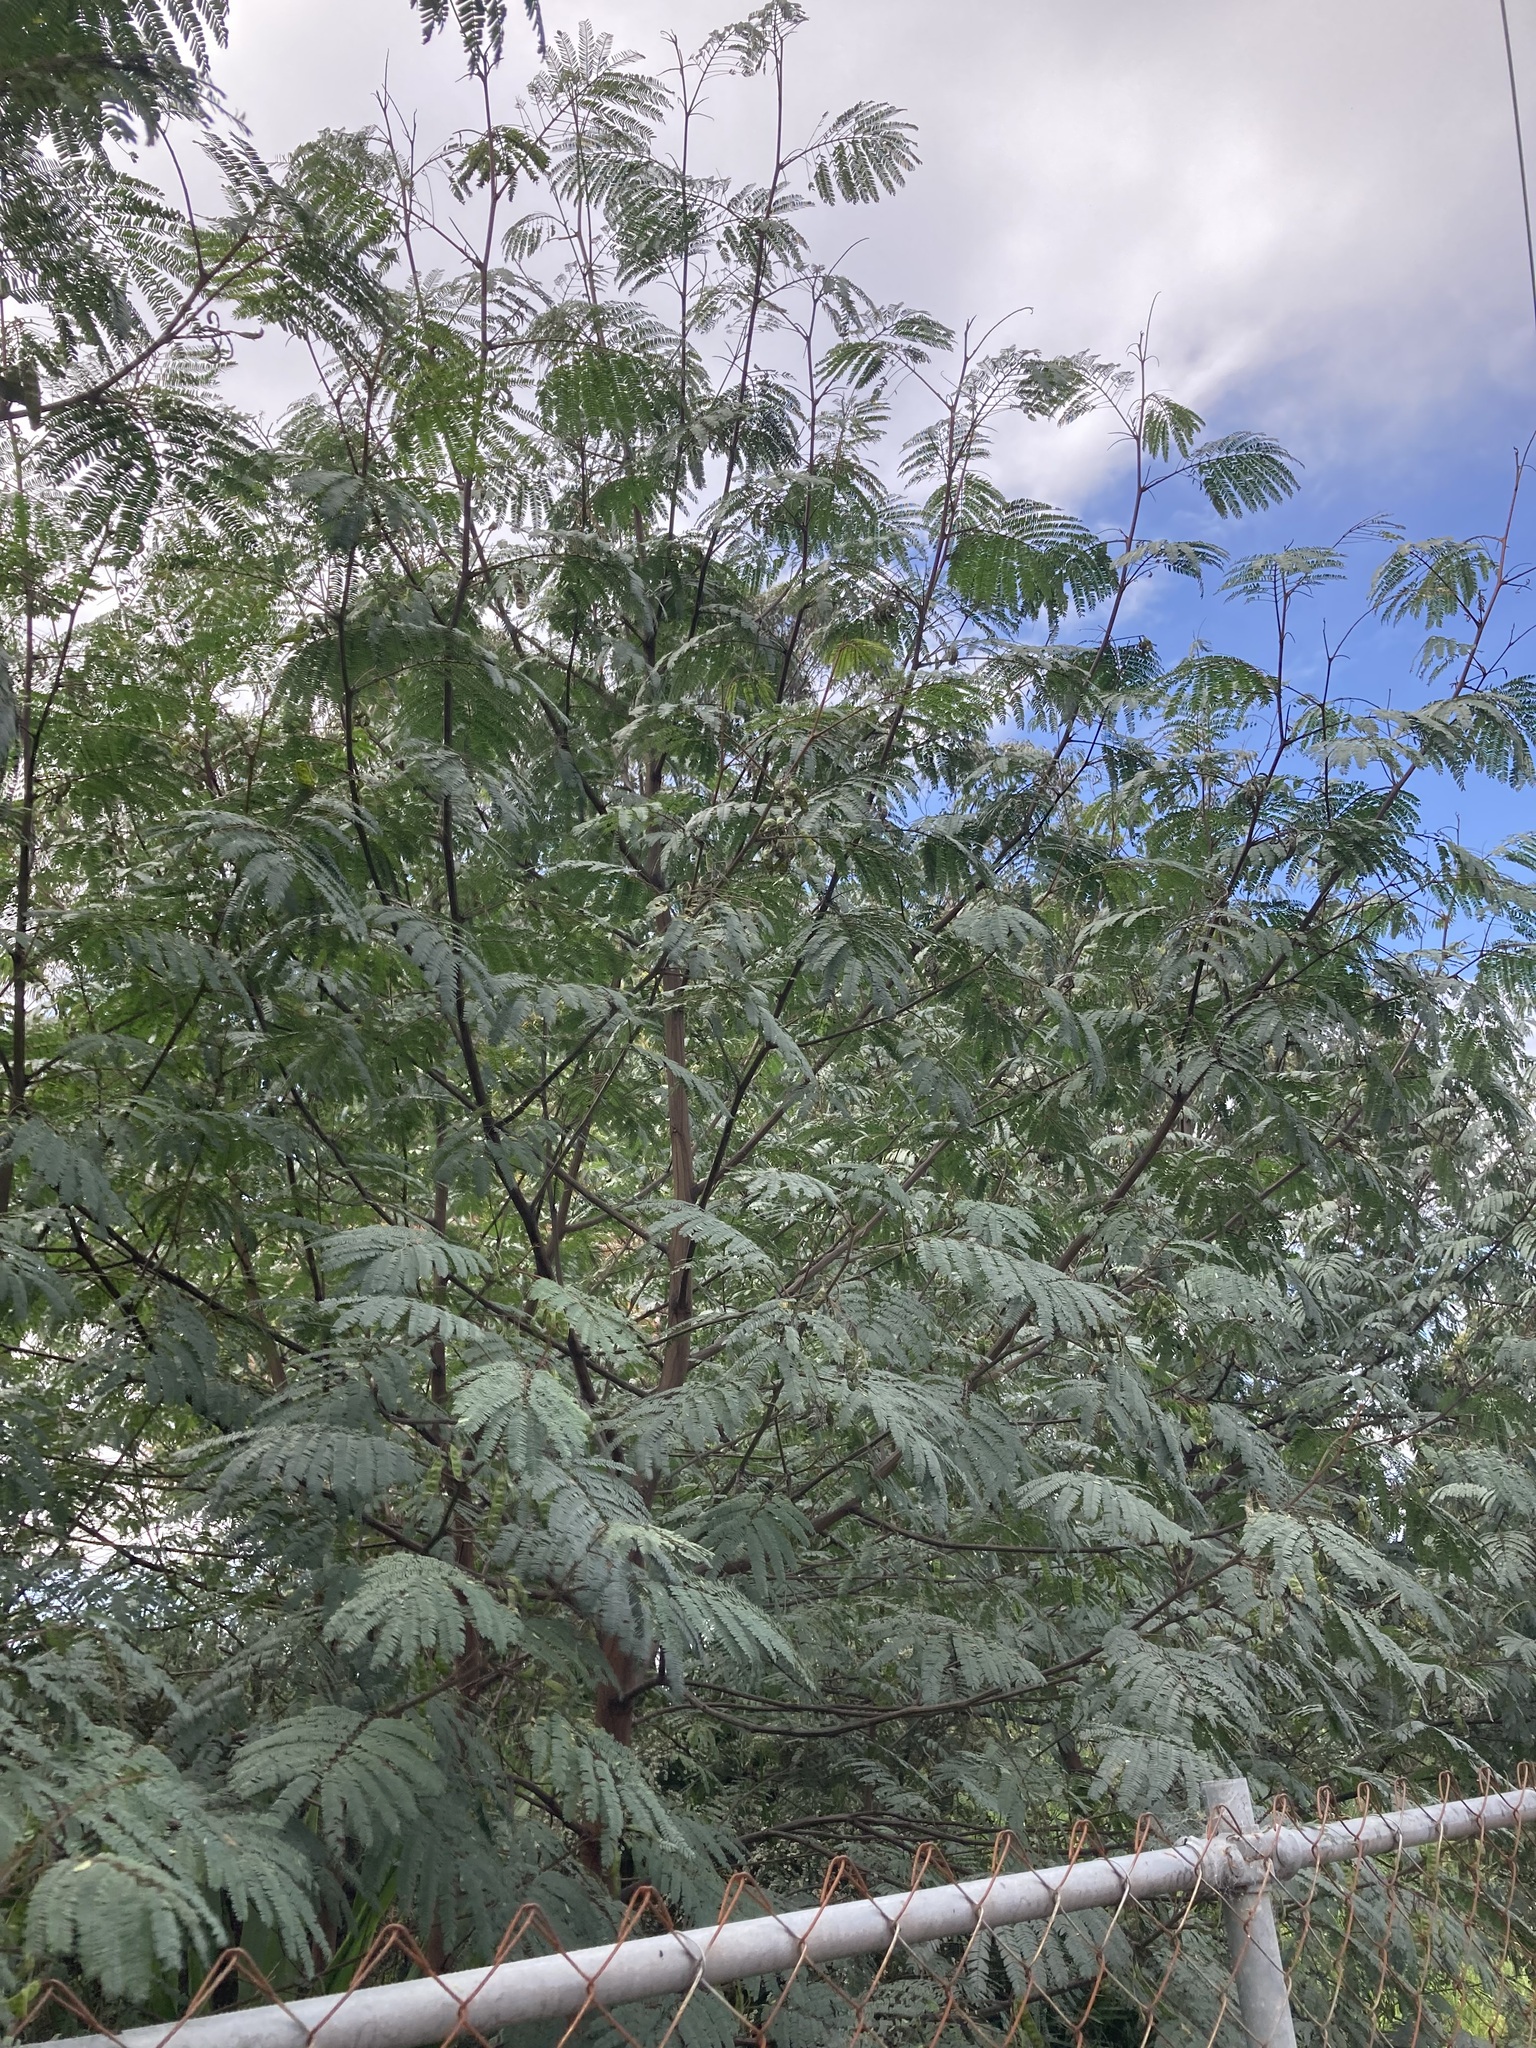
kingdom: Plantae
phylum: Tracheophyta
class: Magnoliopsida
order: Fabales
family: Fabaceae
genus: Paraserianthes
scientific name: Paraserianthes lophantha
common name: Plume albizia
